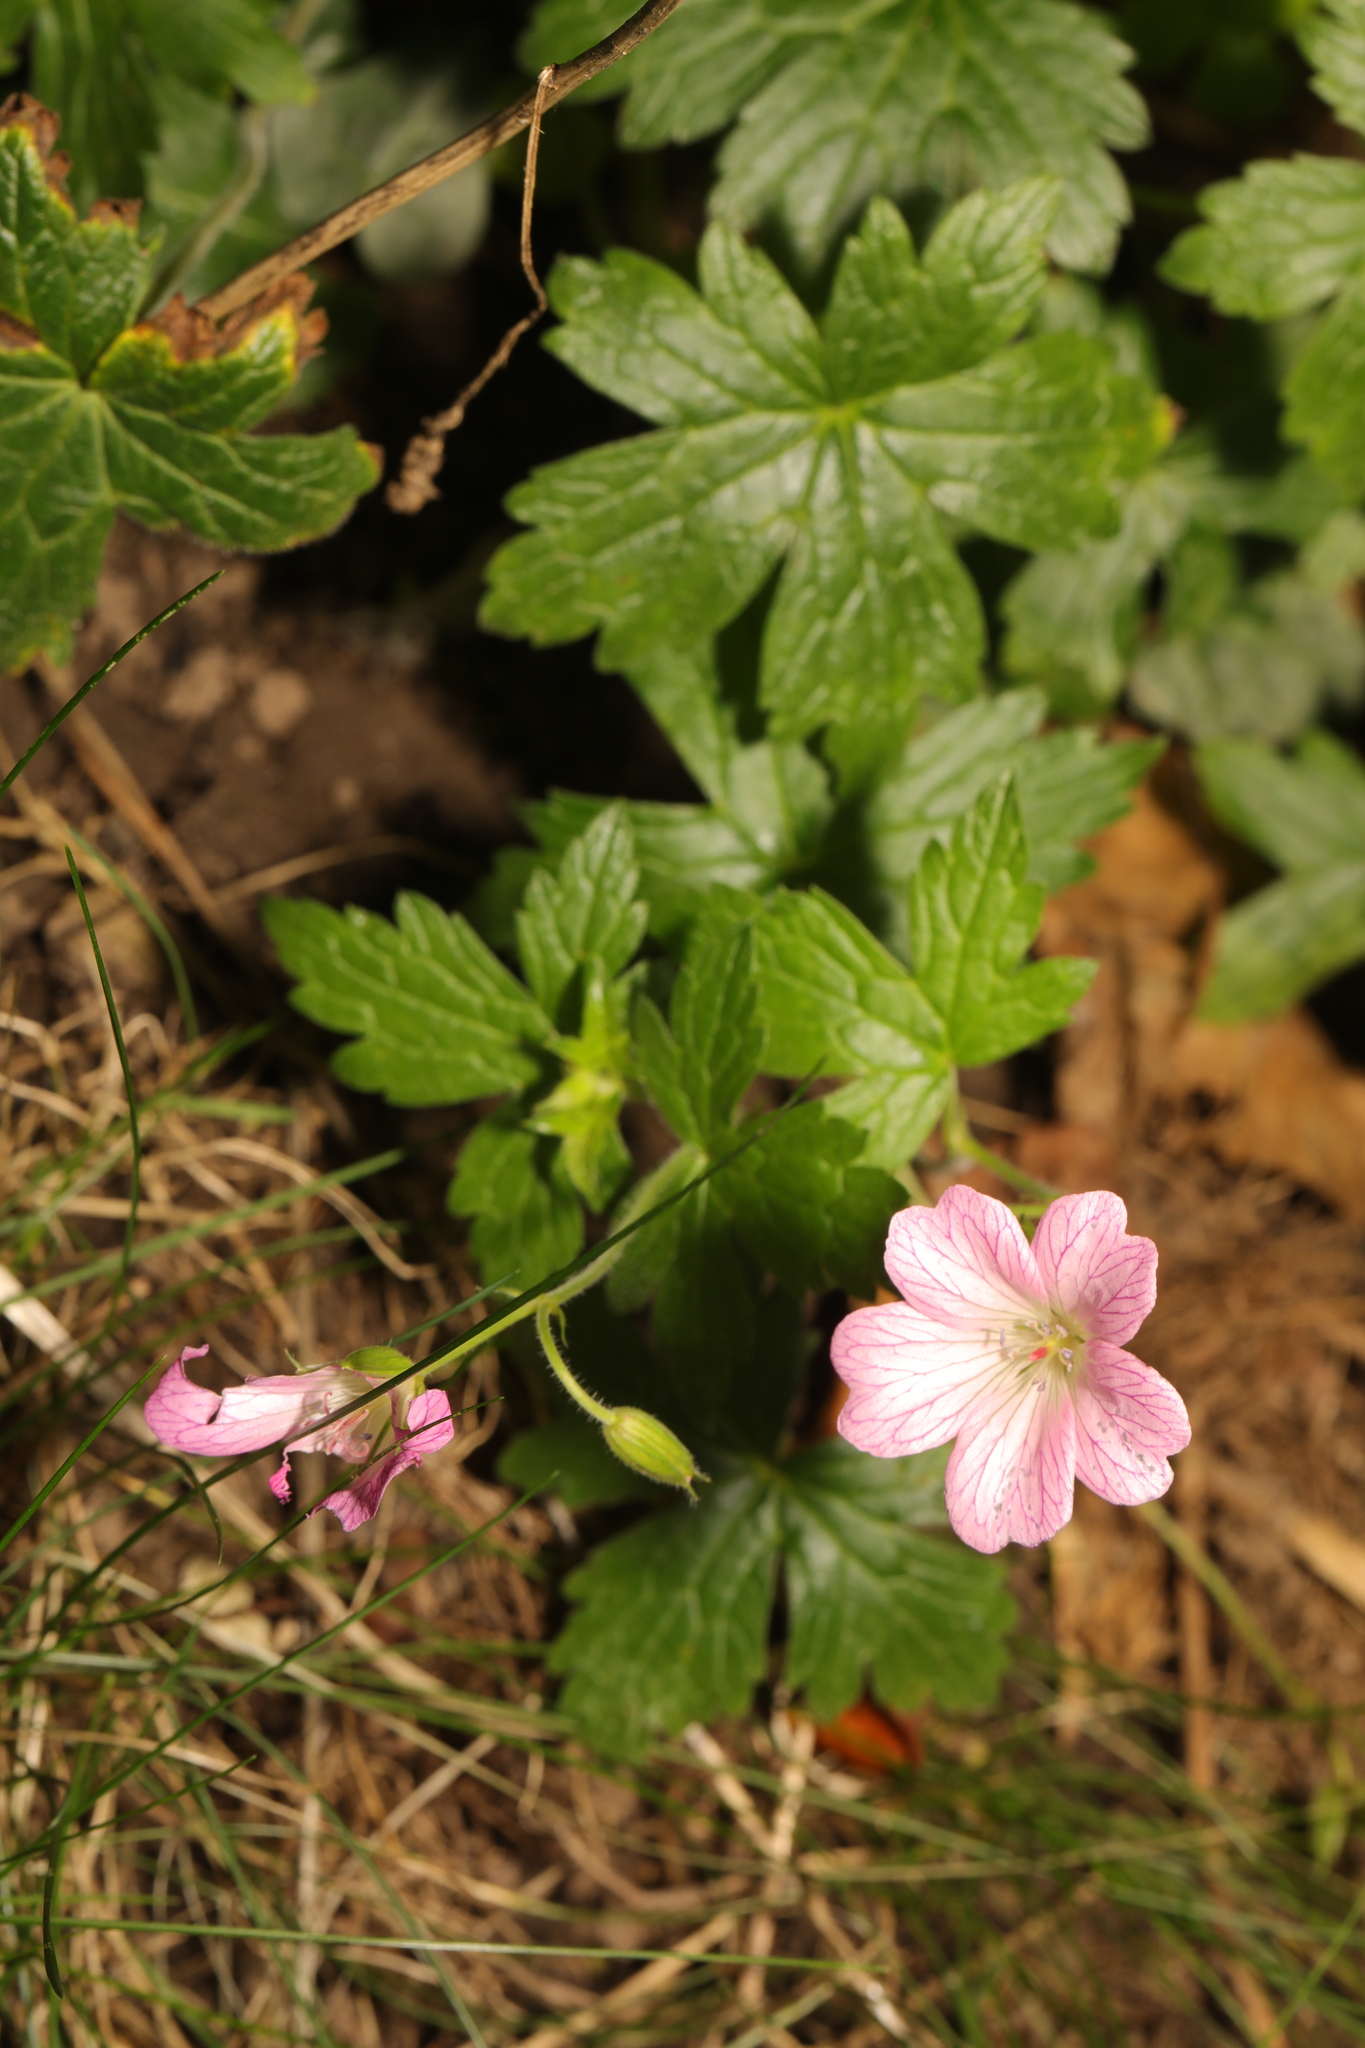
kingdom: Plantae
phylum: Tracheophyta
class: Magnoliopsida
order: Geraniales
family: Geraniaceae
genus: Geranium
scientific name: Geranium oxonianum
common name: Druce's crane's-bill
